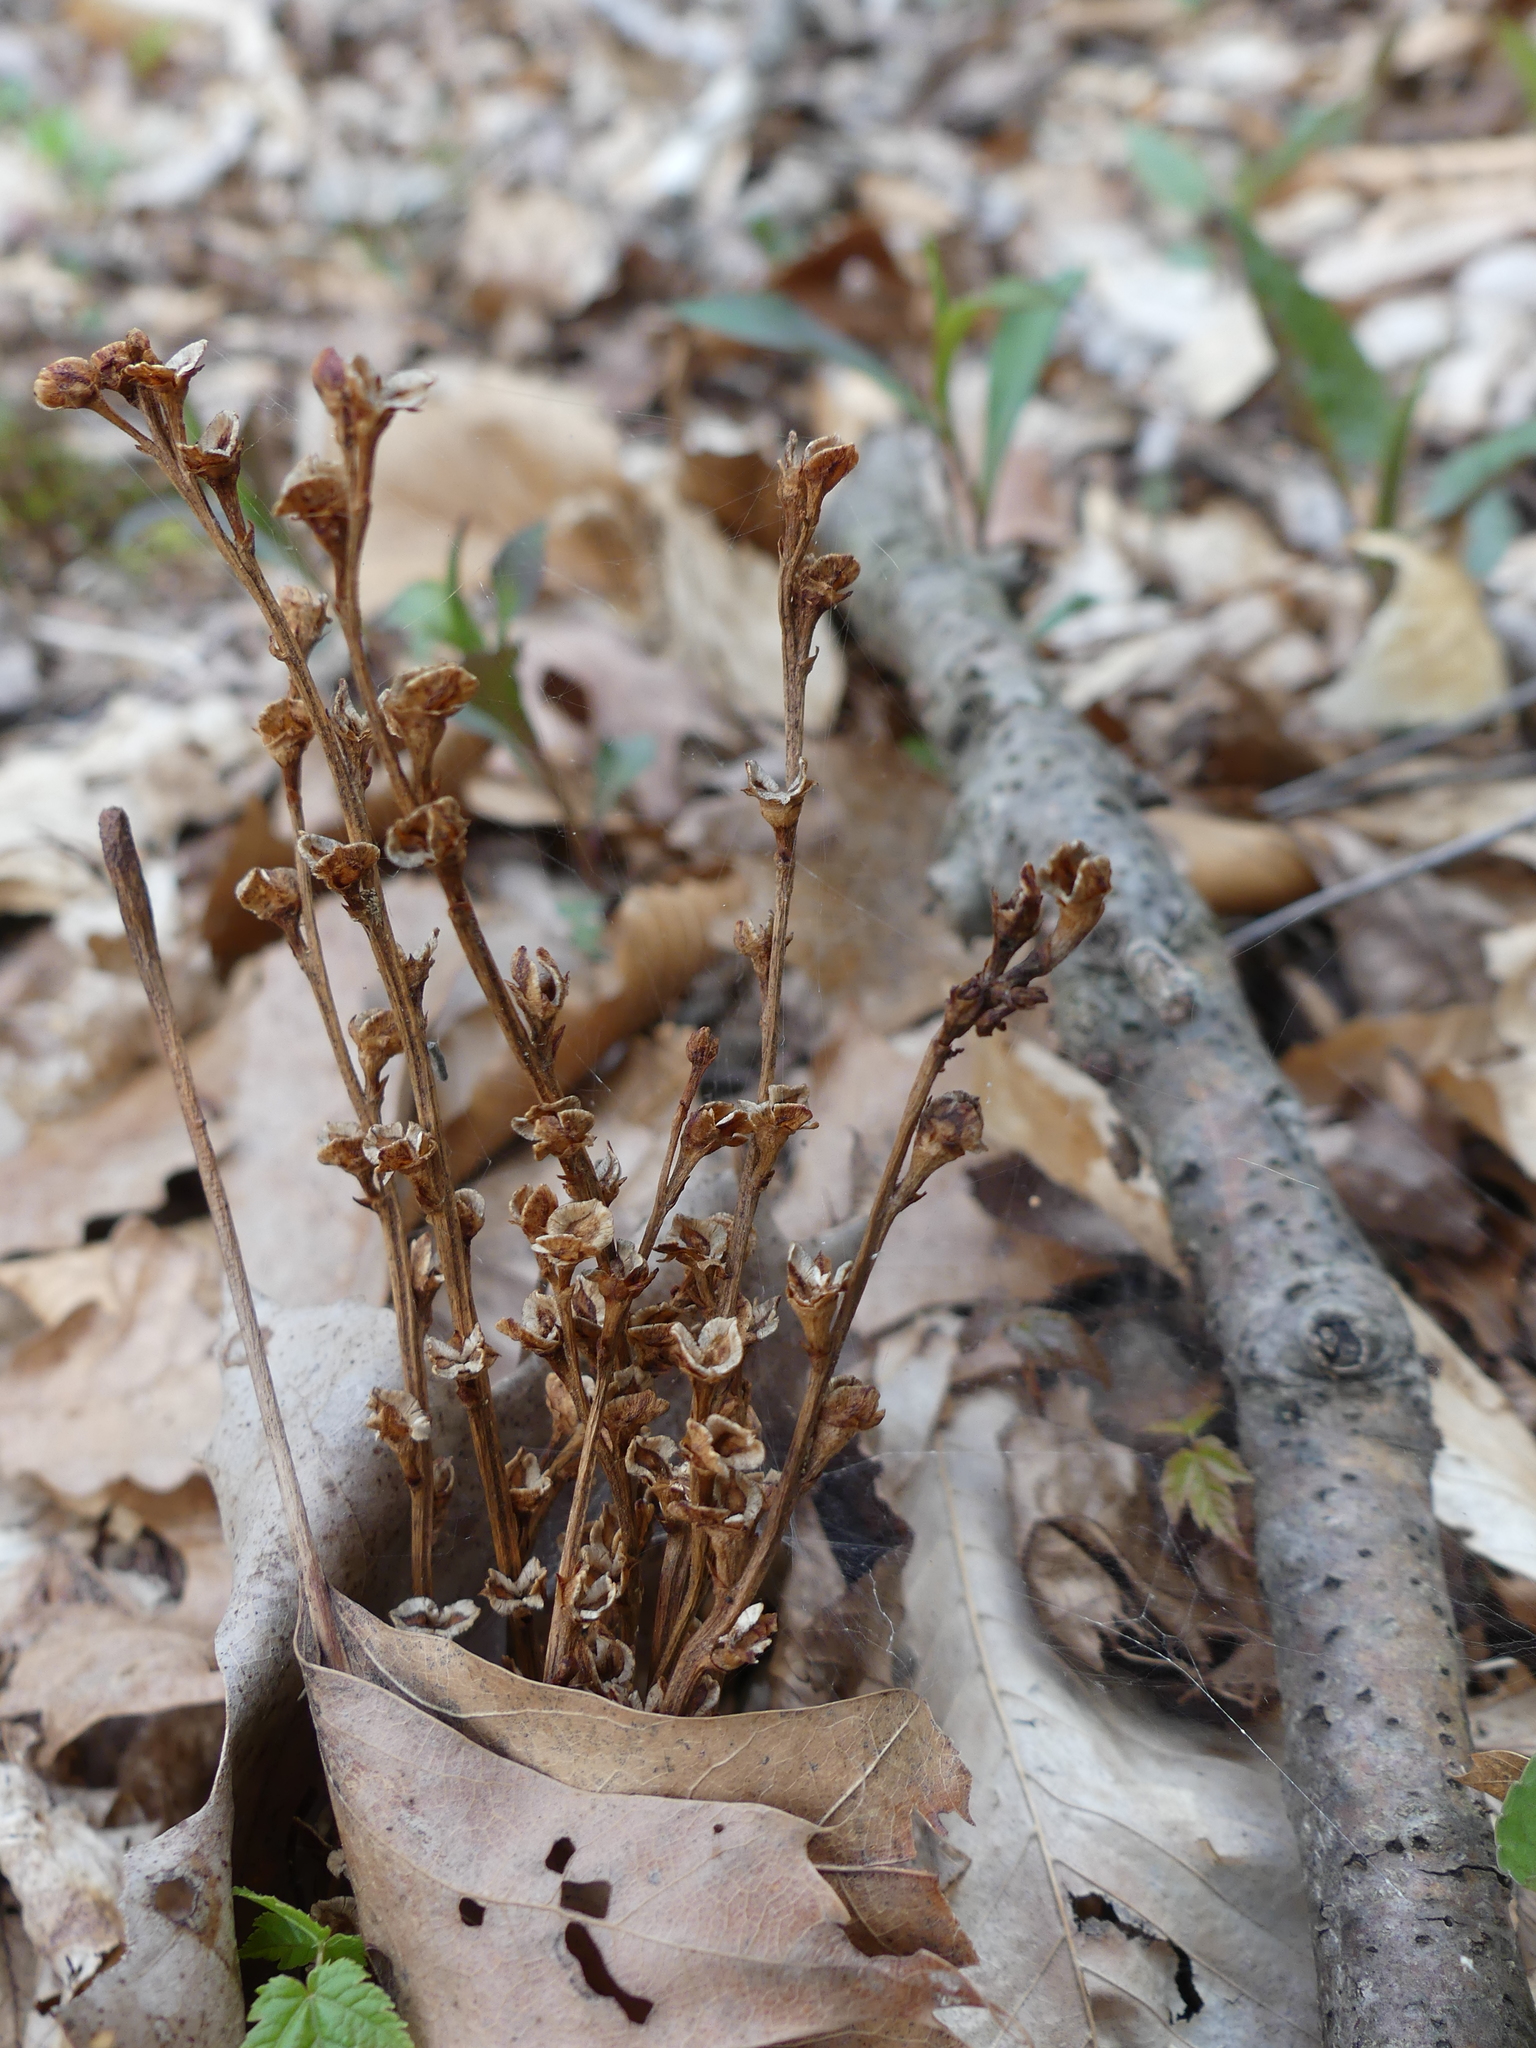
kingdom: Plantae
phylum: Tracheophyta
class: Magnoliopsida
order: Lamiales
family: Orobanchaceae
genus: Epifagus
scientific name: Epifagus virginiana
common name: Beechdrops
